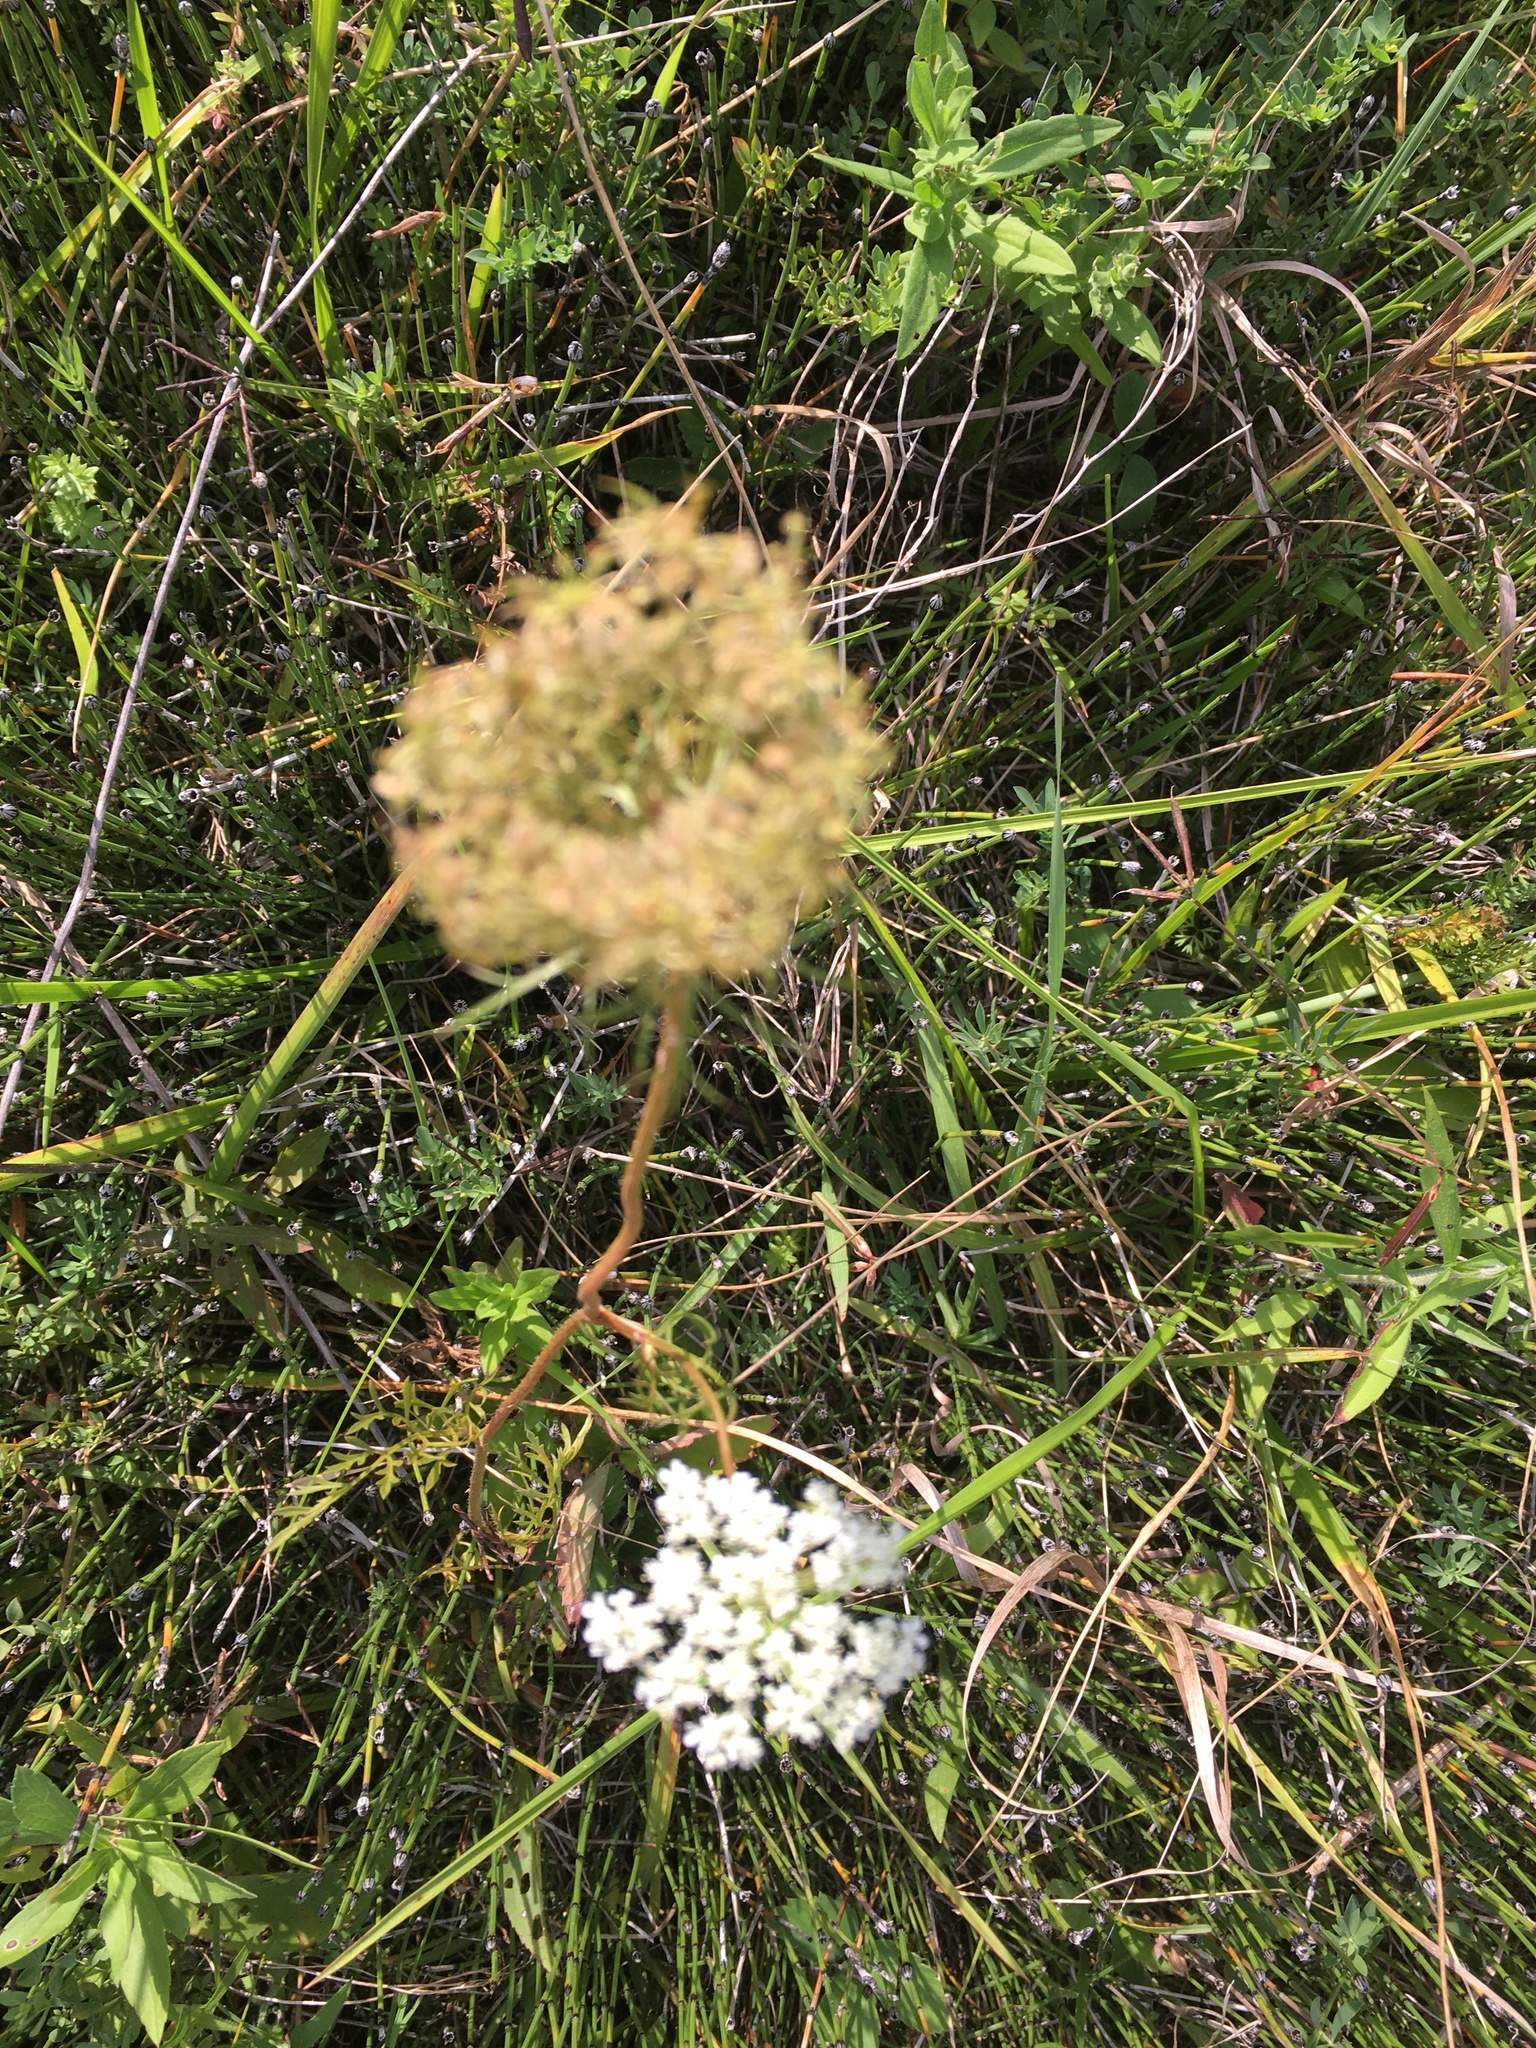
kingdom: Plantae
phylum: Tracheophyta
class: Magnoliopsida
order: Apiales
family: Apiaceae
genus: Daucus
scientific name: Daucus carota
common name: Wild carrot
